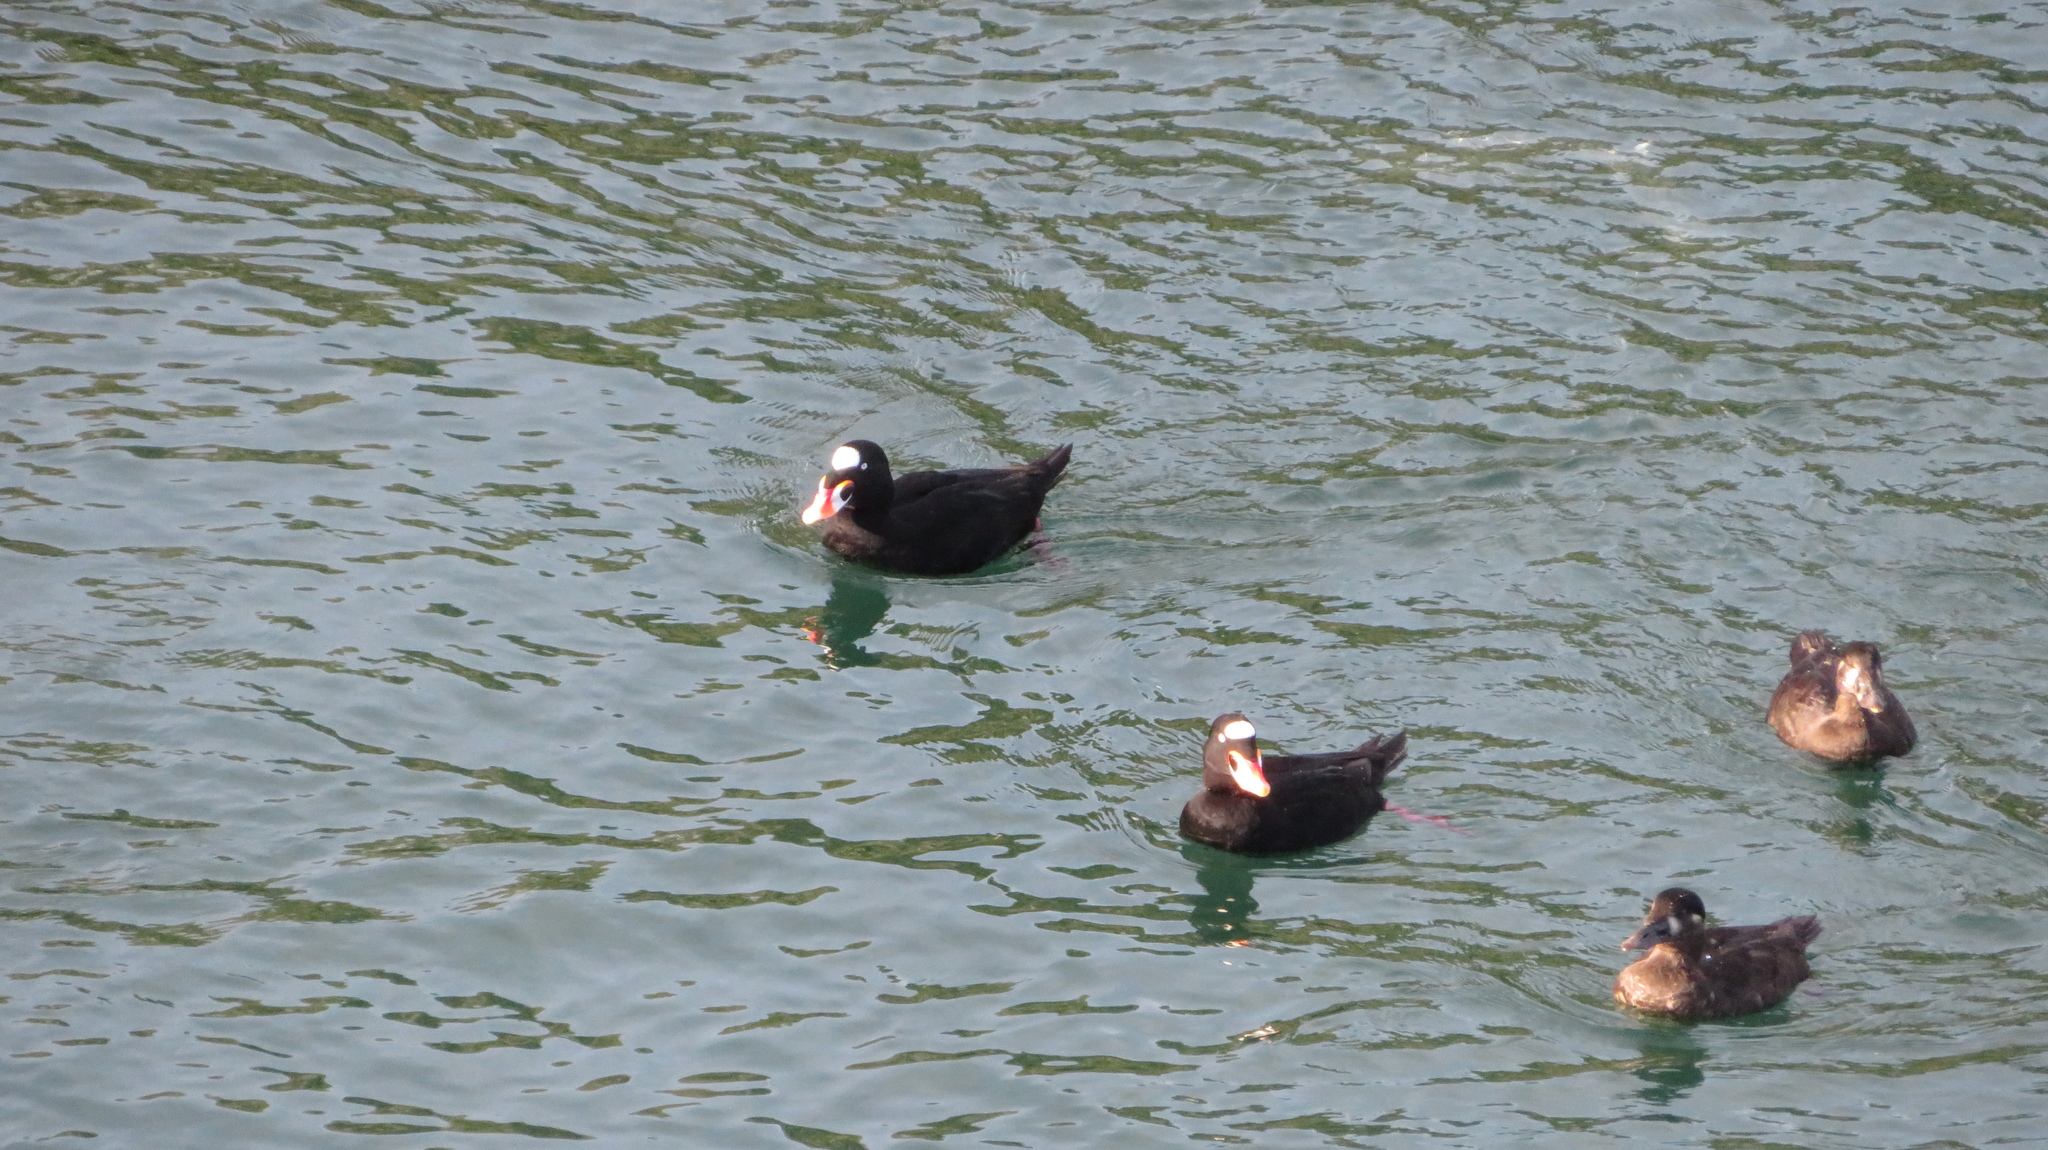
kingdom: Animalia
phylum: Chordata
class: Aves
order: Anseriformes
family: Anatidae
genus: Melanitta
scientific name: Melanitta perspicillata
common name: Surf scoter
